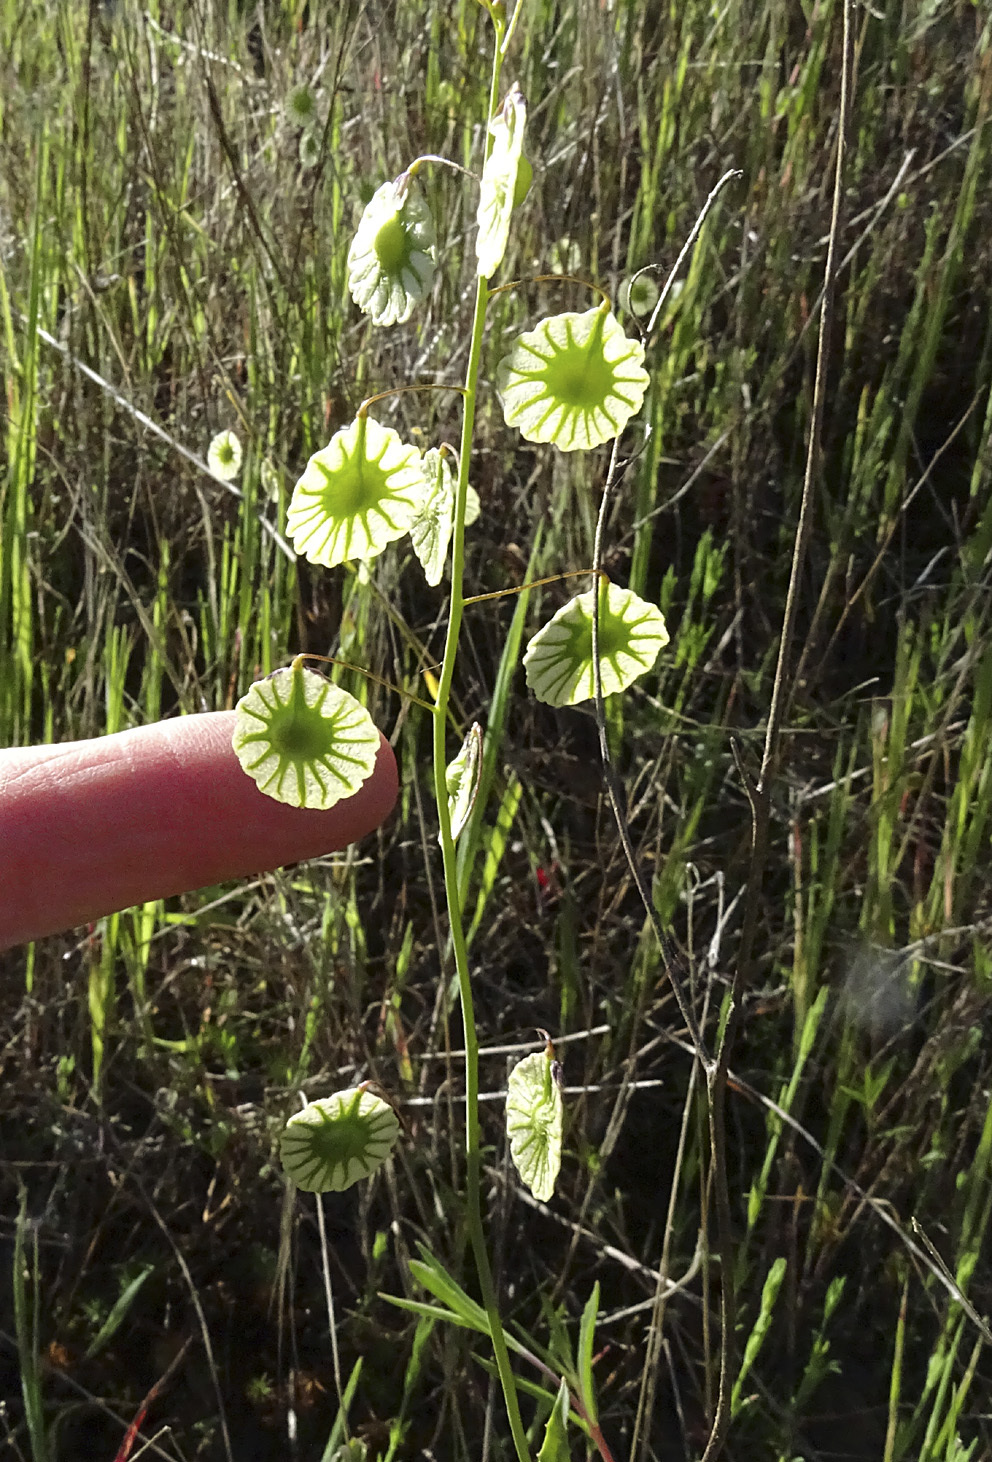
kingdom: Plantae
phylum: Tracheophyta
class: Magnoliopsida
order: Brassicales
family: Brassicaceae
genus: Thysanocarpus
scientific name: Thysanocarpus radians
